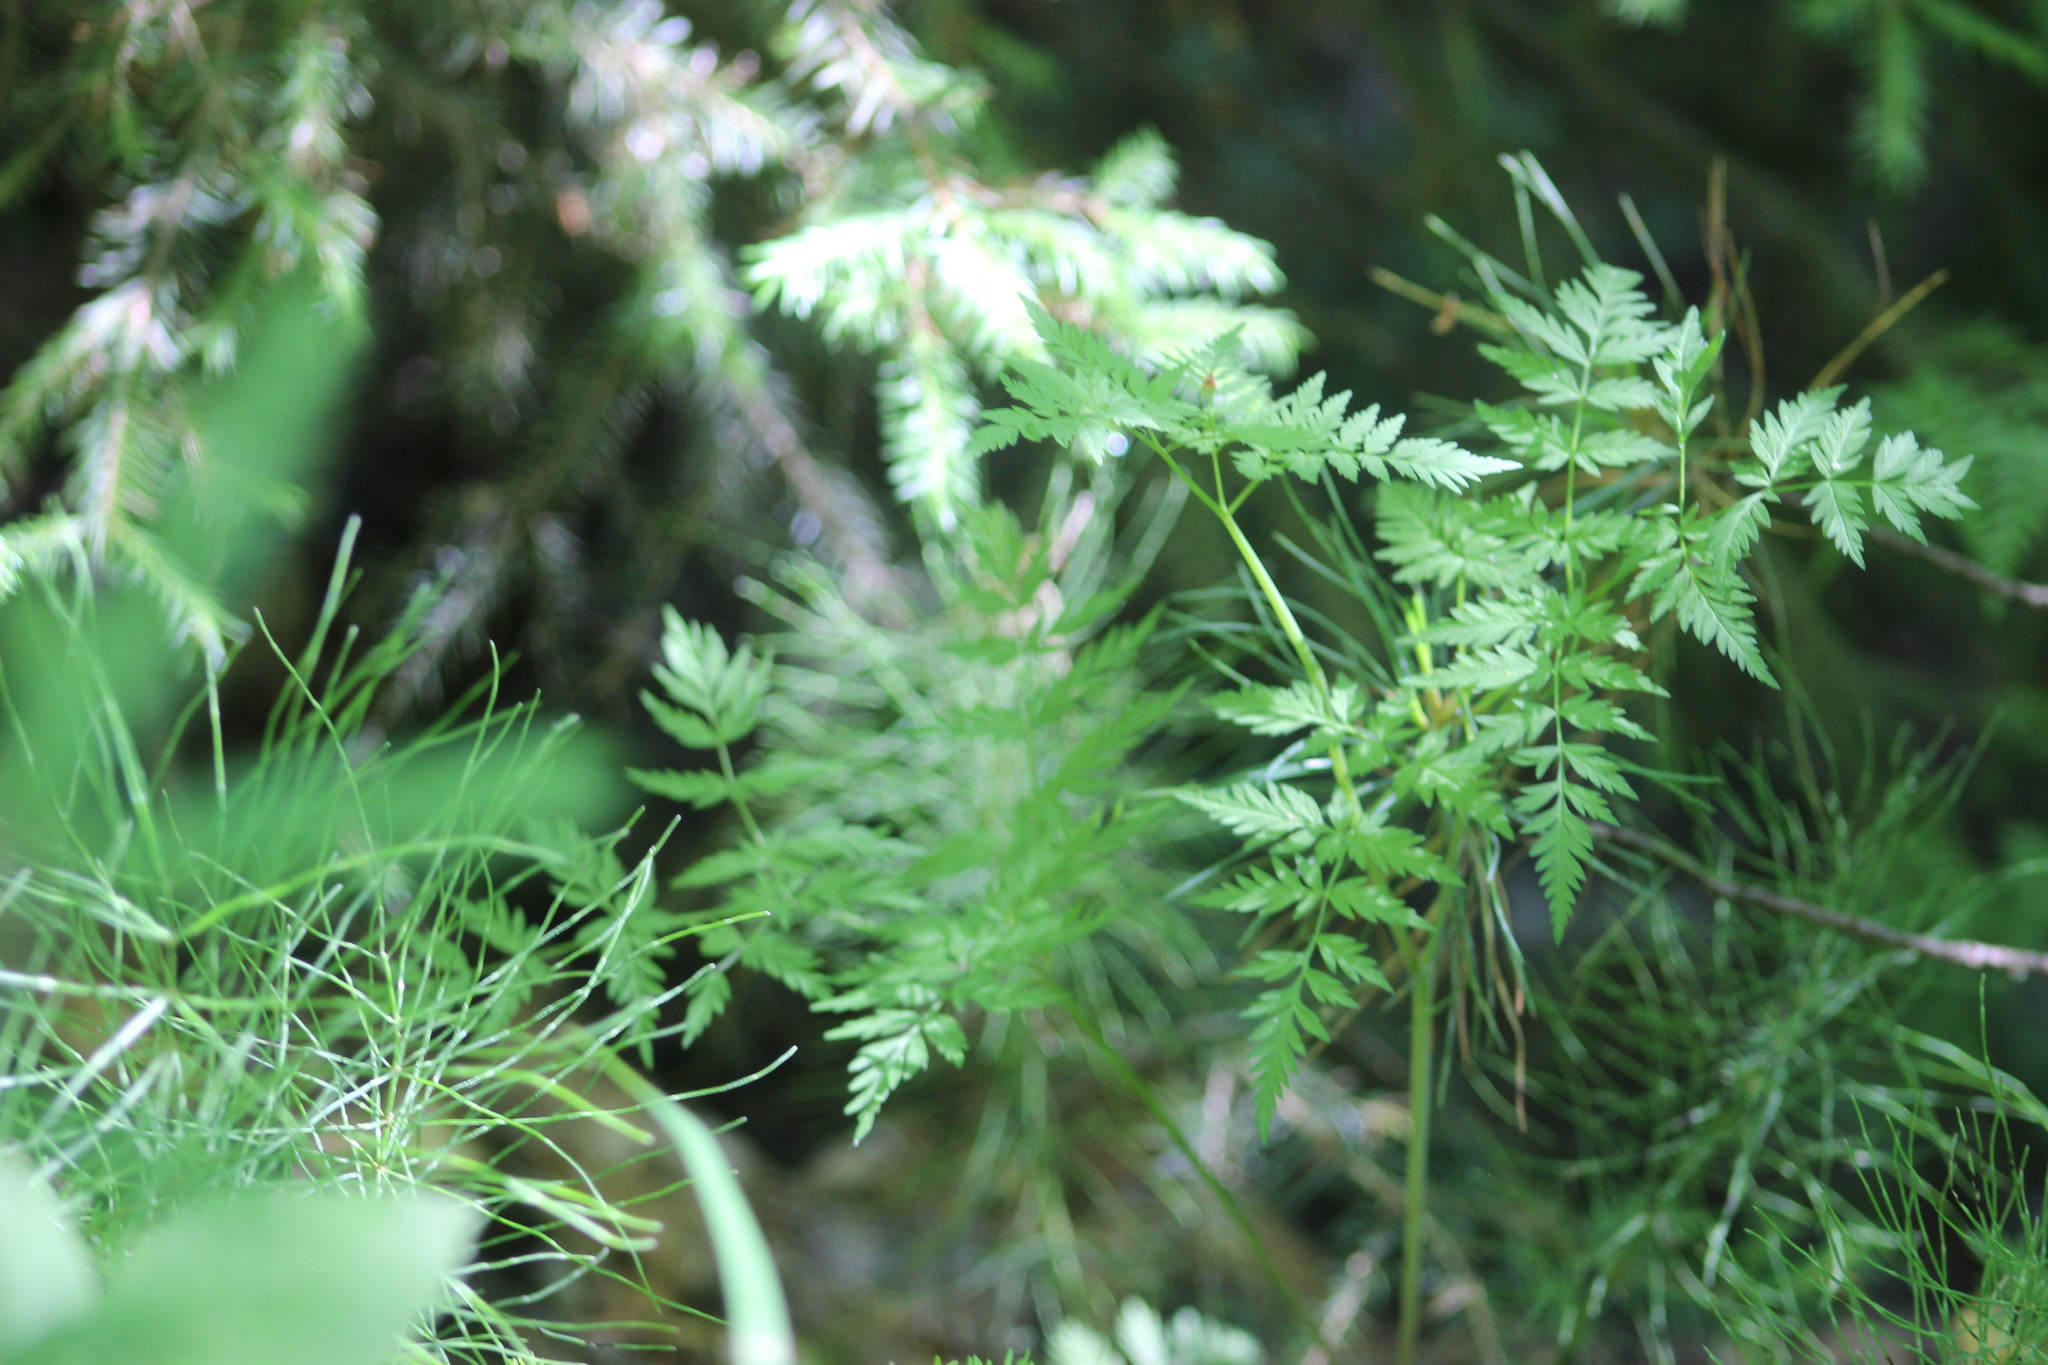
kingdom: Plantae
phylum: Tracheophyta
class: Magnoliopsida
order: Apiales
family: Apiaceae
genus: Anthriscus
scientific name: Anthriscus sylvestris
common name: Cow parsley
